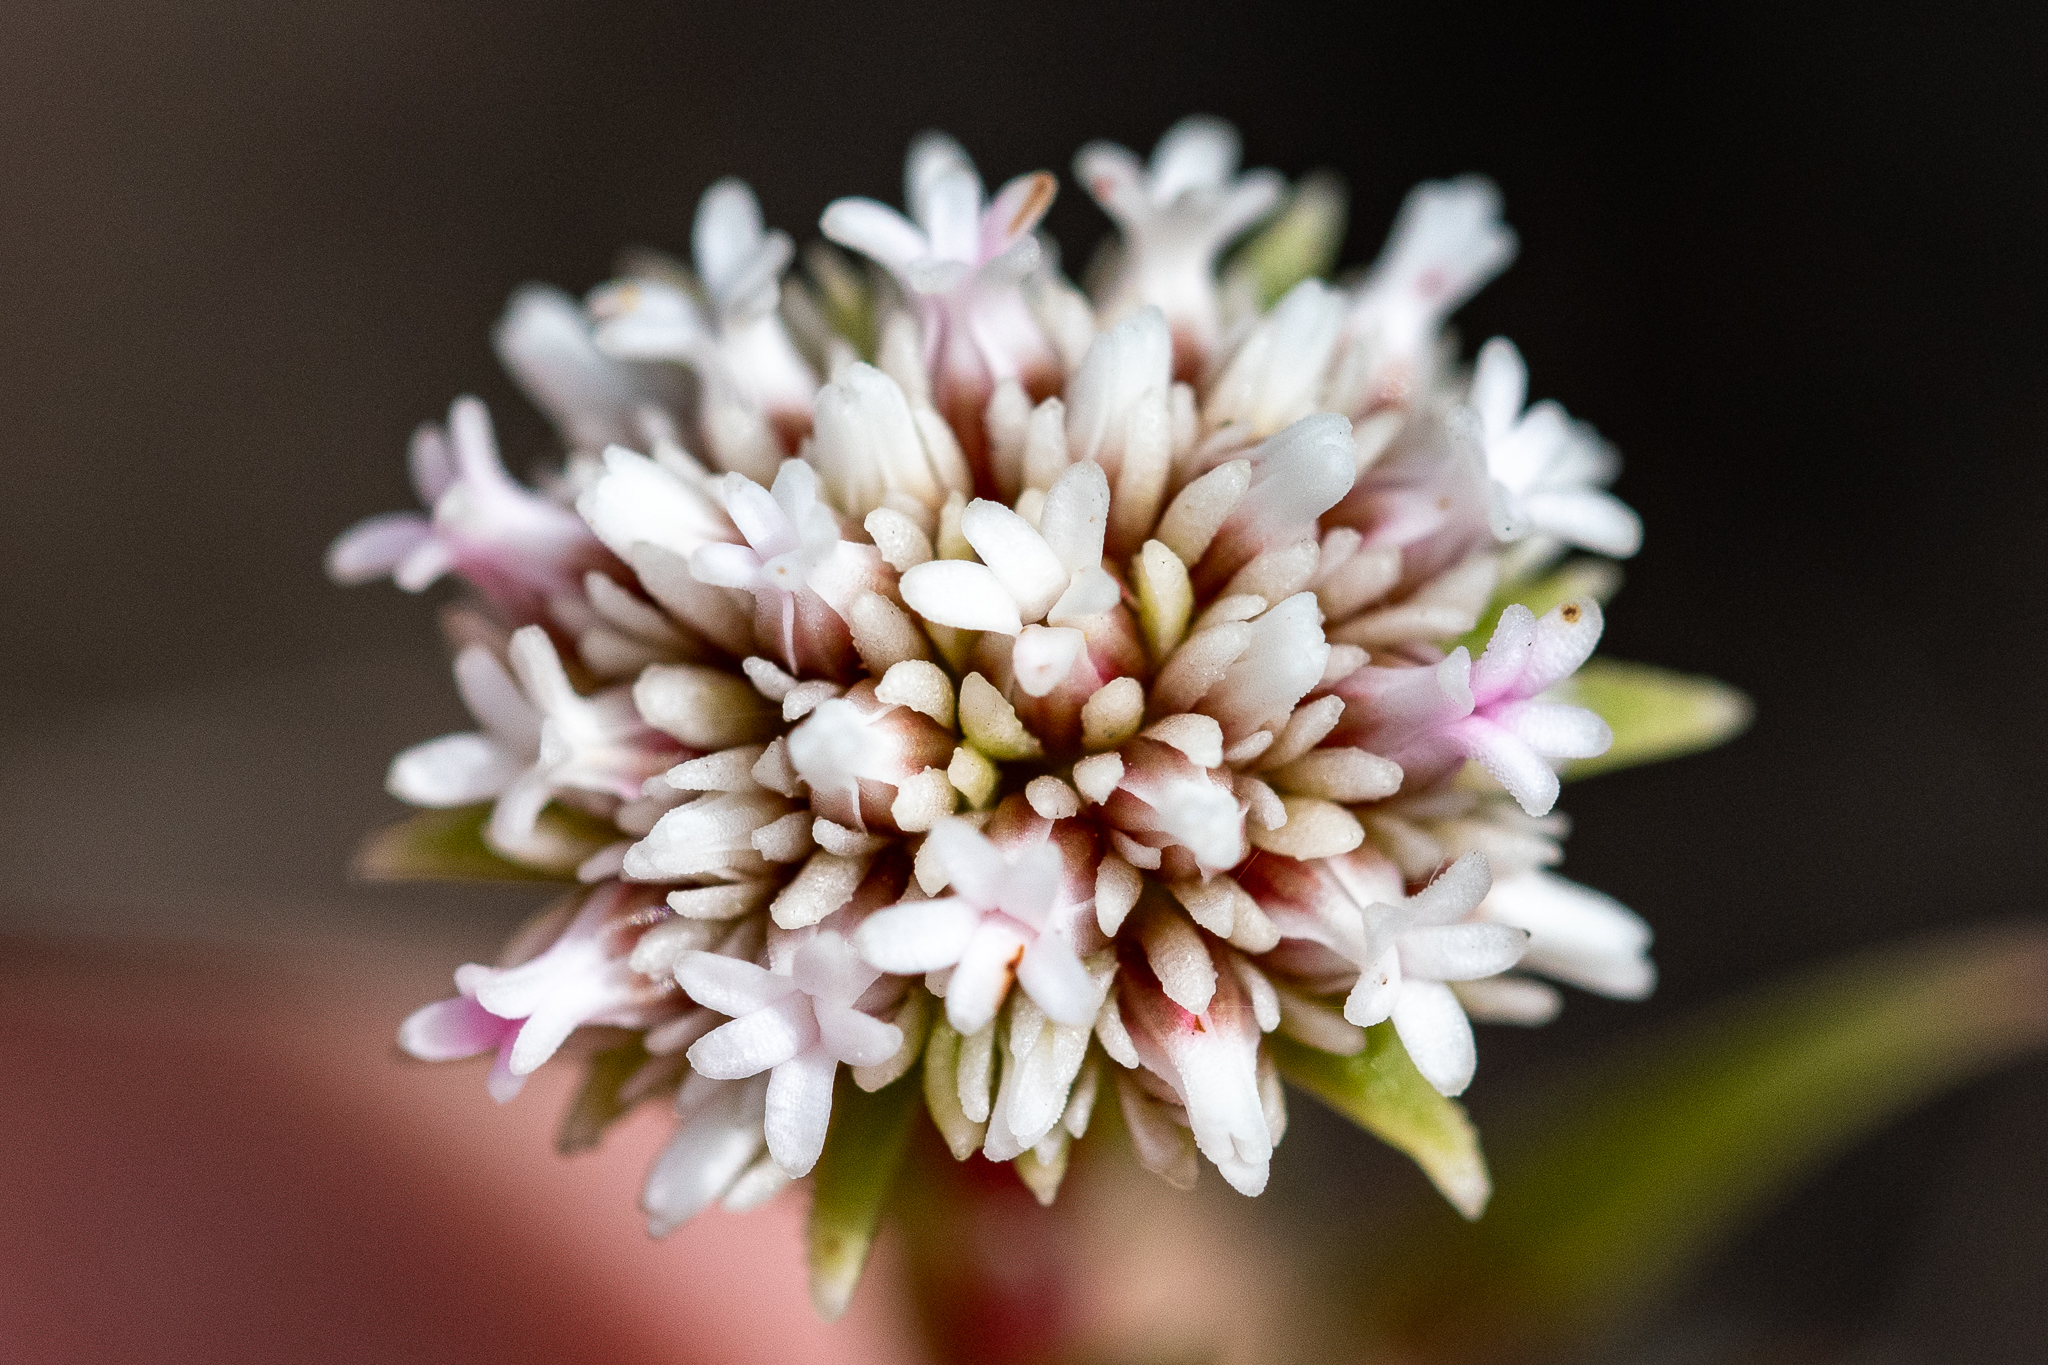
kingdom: Plantae
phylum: Tracheophyta
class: Magnoliopsida
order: Saxifragales
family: Crassulaceae
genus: Crassula
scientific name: Crassula subulata
